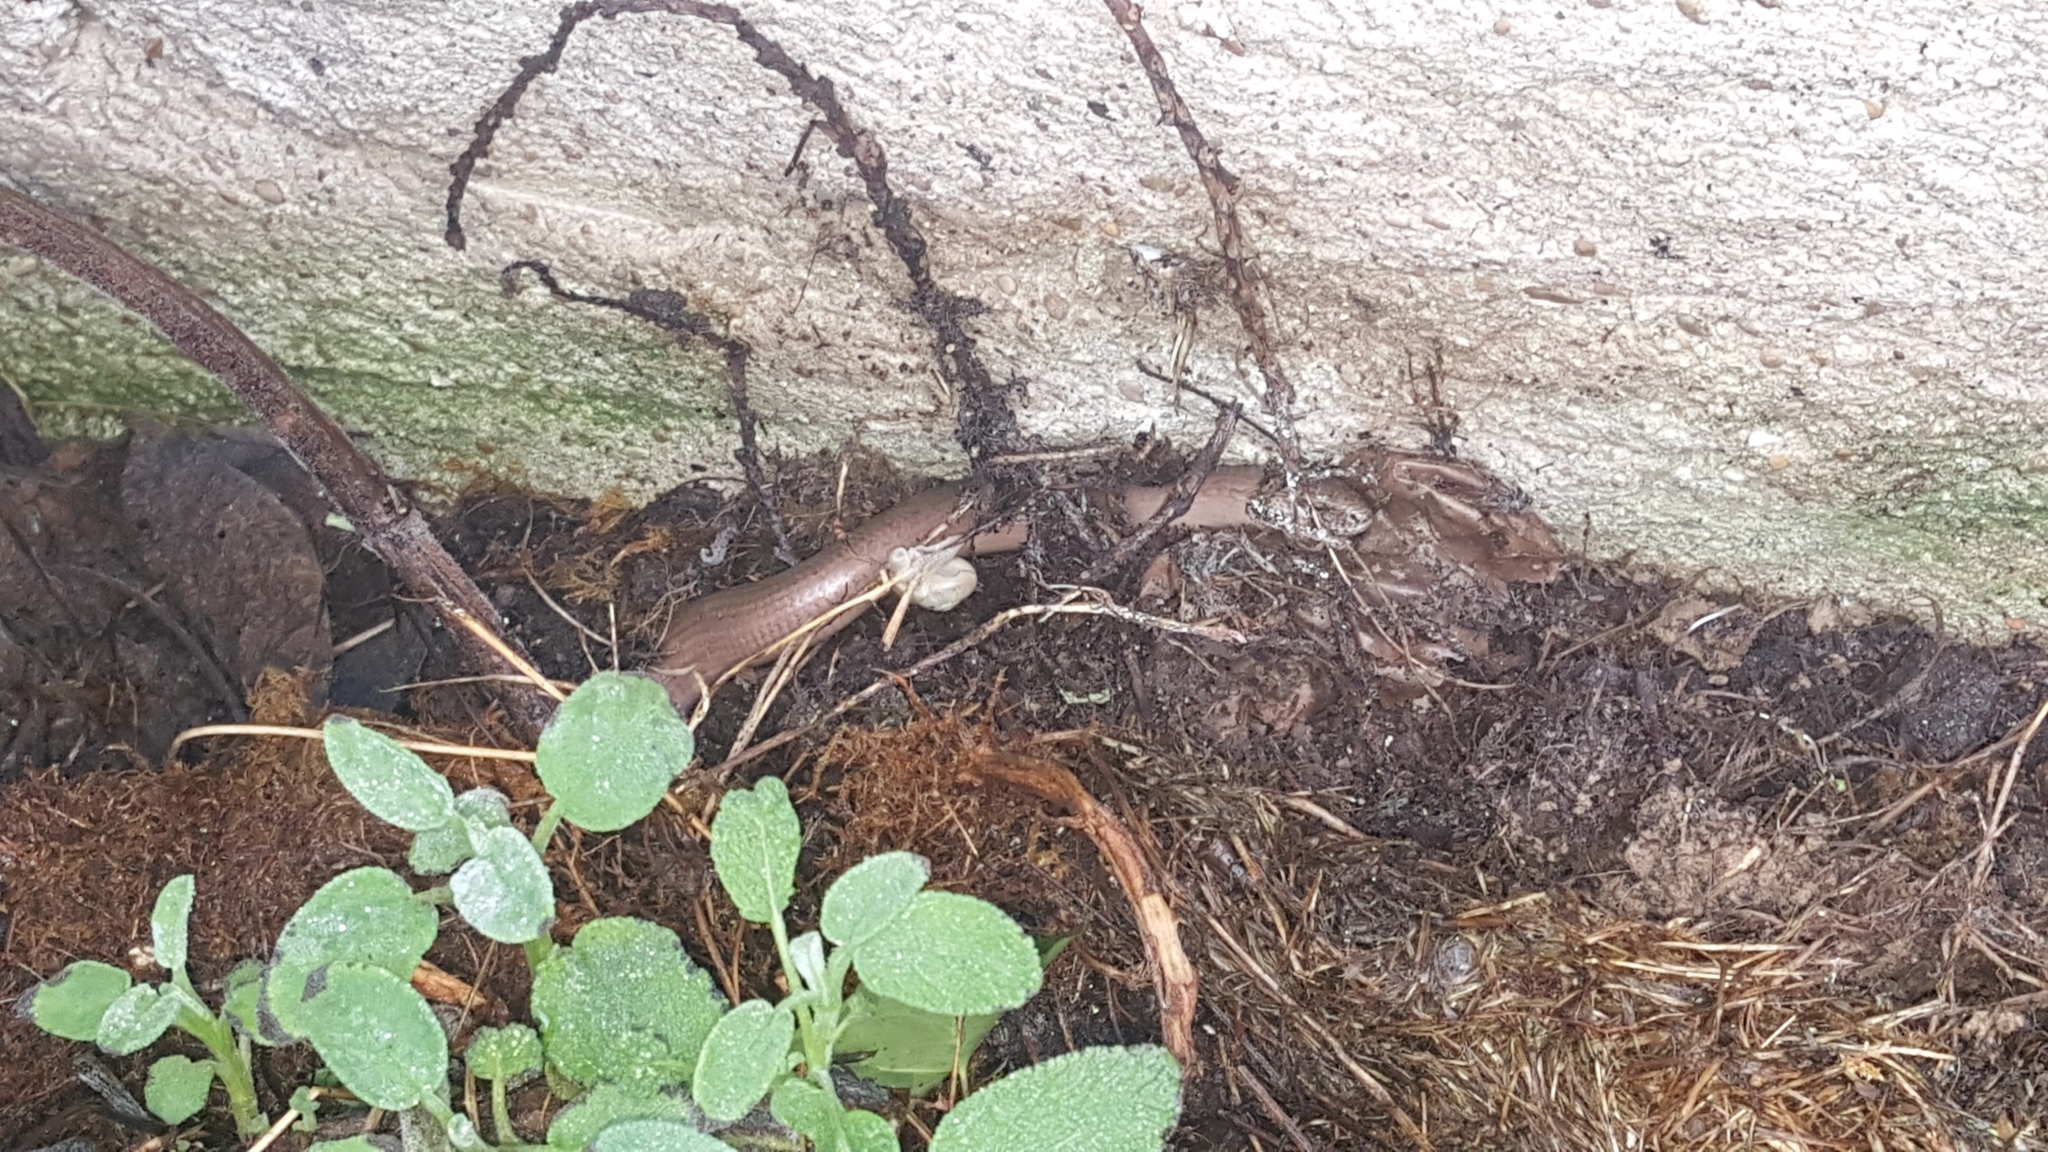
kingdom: Animalia
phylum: Chordata
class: Squamata
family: Anguidae
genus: Anguis
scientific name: Anguis fragilis
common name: Slow worm
